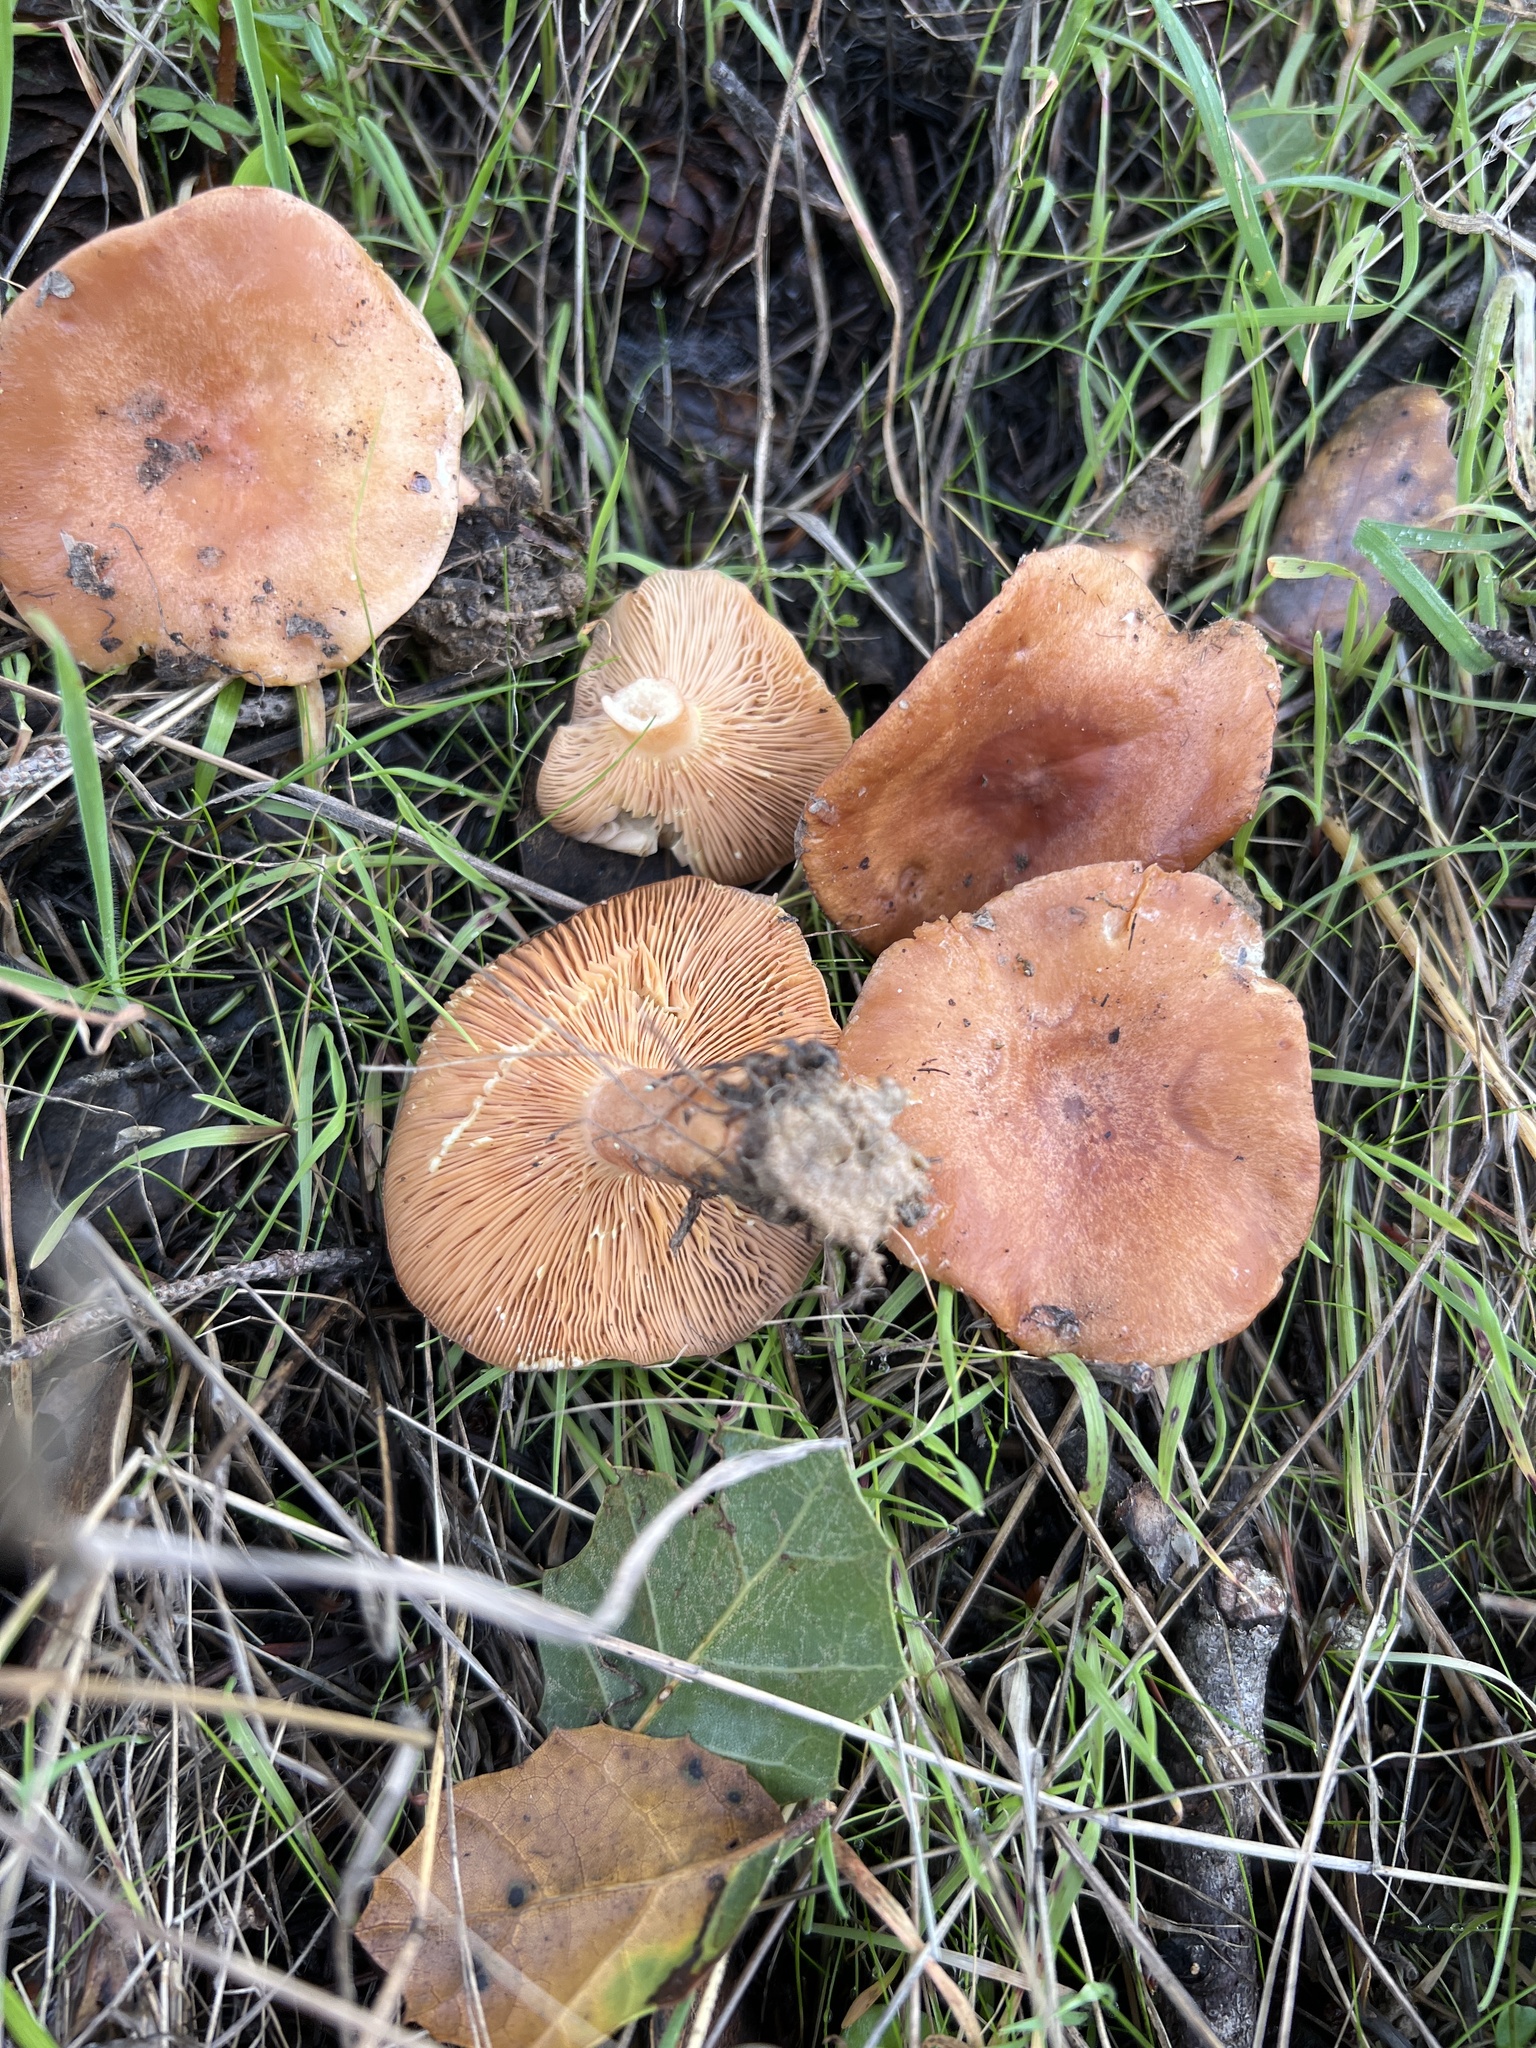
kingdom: Fungi
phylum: Basidiomycota
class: Agaricomycetes
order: Russulales
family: Russulaceae
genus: Lactarius
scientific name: Lactarius xanthogalactus
